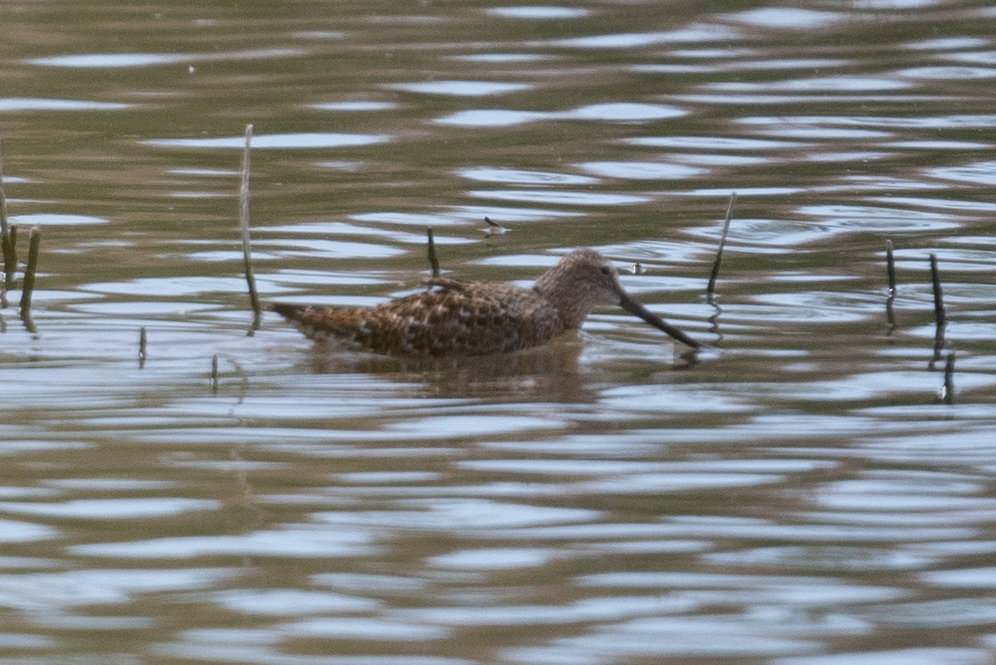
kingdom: Animalia
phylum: Chordata
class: Aves
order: Charadriiformes
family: Scolopacidae
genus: Limnodromus
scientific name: Limnodromus scolopaceus
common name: Long-billed dowitcher
